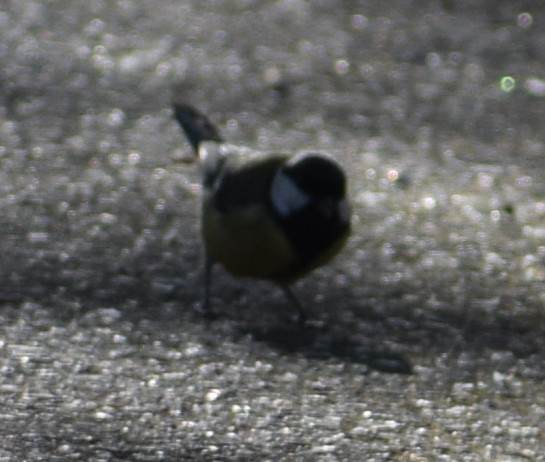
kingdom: Animalia
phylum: Chordata
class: Aves
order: Passeriformes
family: Paridae
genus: Parus
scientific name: Parus major
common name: Great tit
